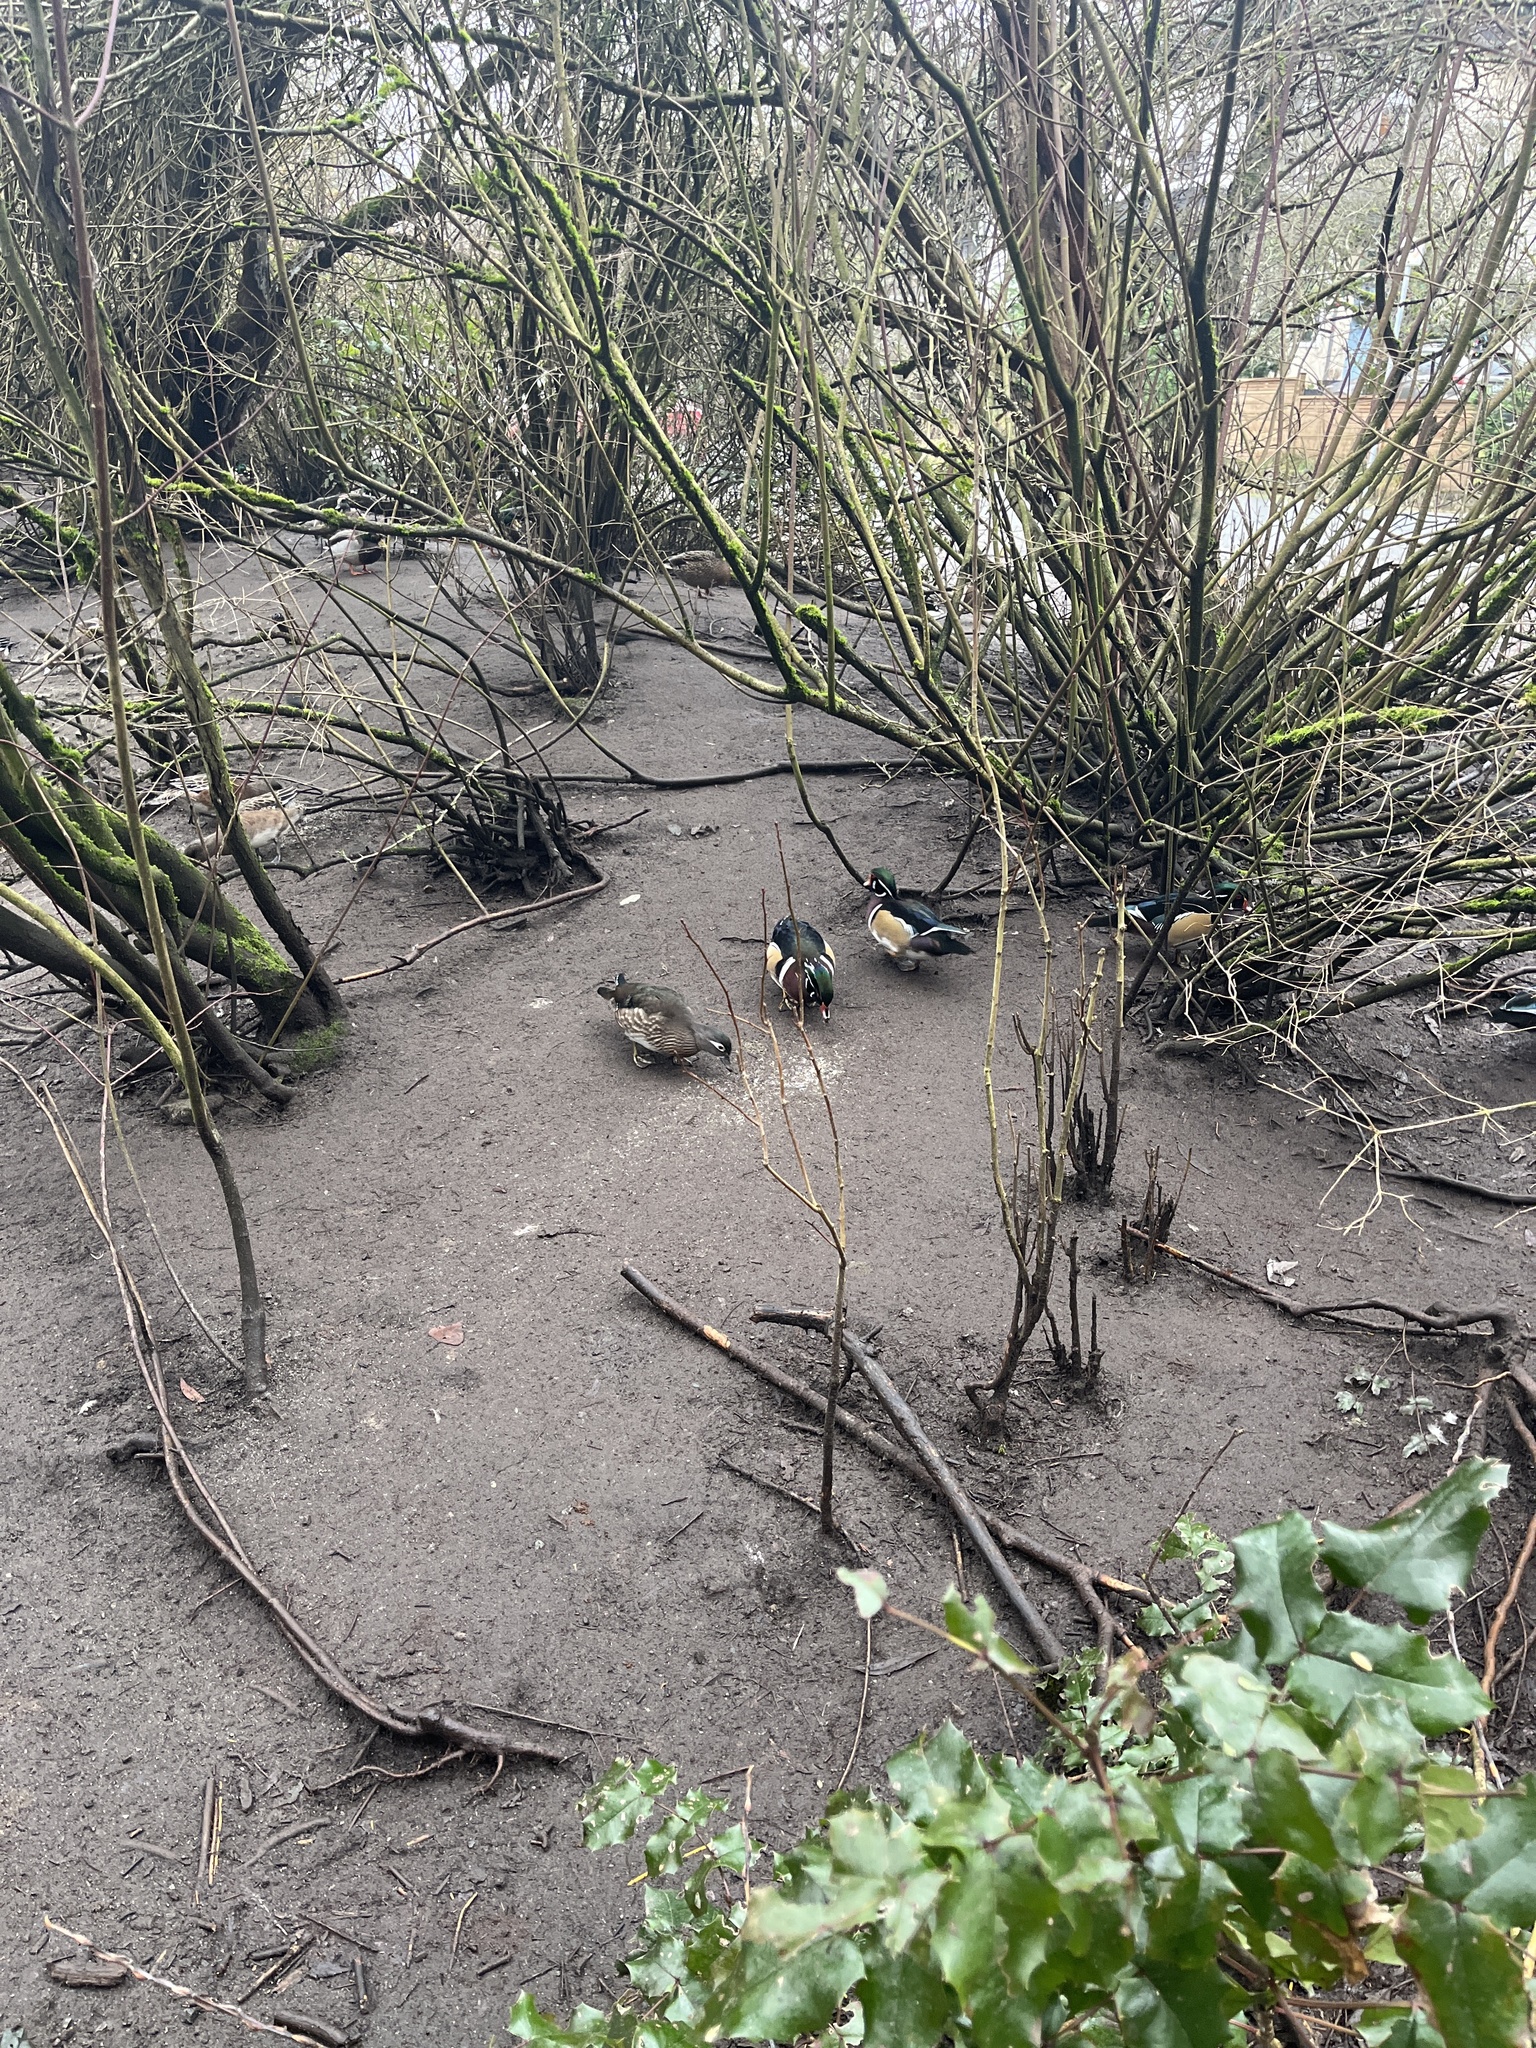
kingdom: Animalia
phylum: Chordata
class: Aves
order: Anseriformes
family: Anatidae
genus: Aix
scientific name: Aix sponsa
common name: Wood duck
